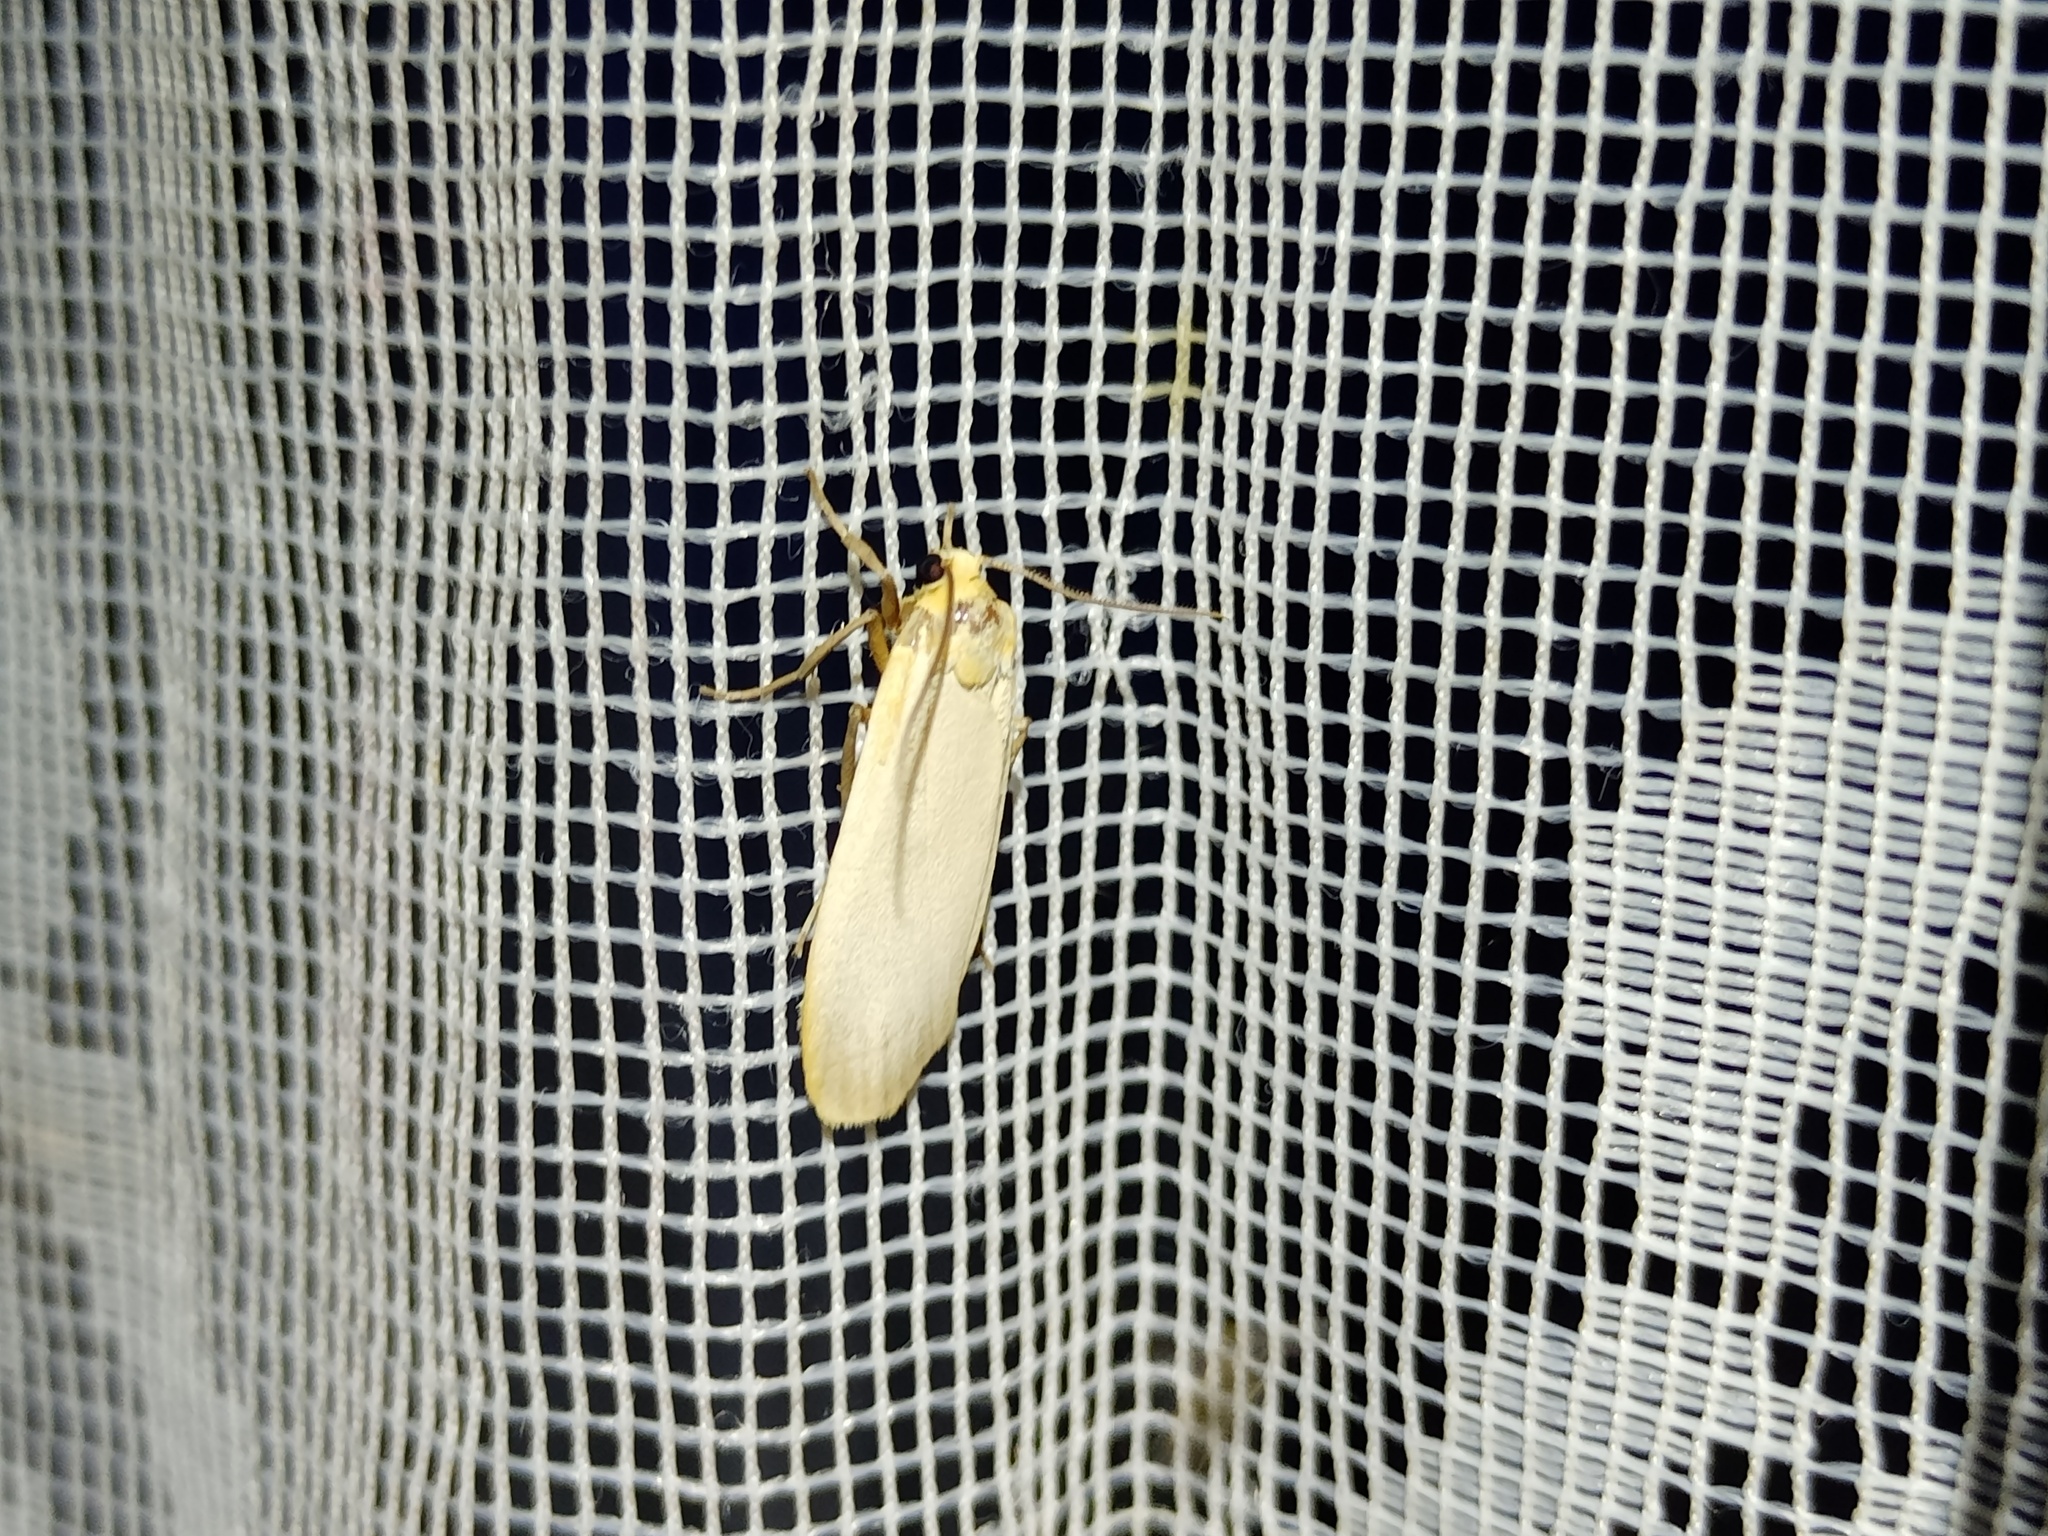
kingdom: Animalia
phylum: Arthropoda
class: Insecta
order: Lepidoptera
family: Erebidae
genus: Katha
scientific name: Katha depressa
